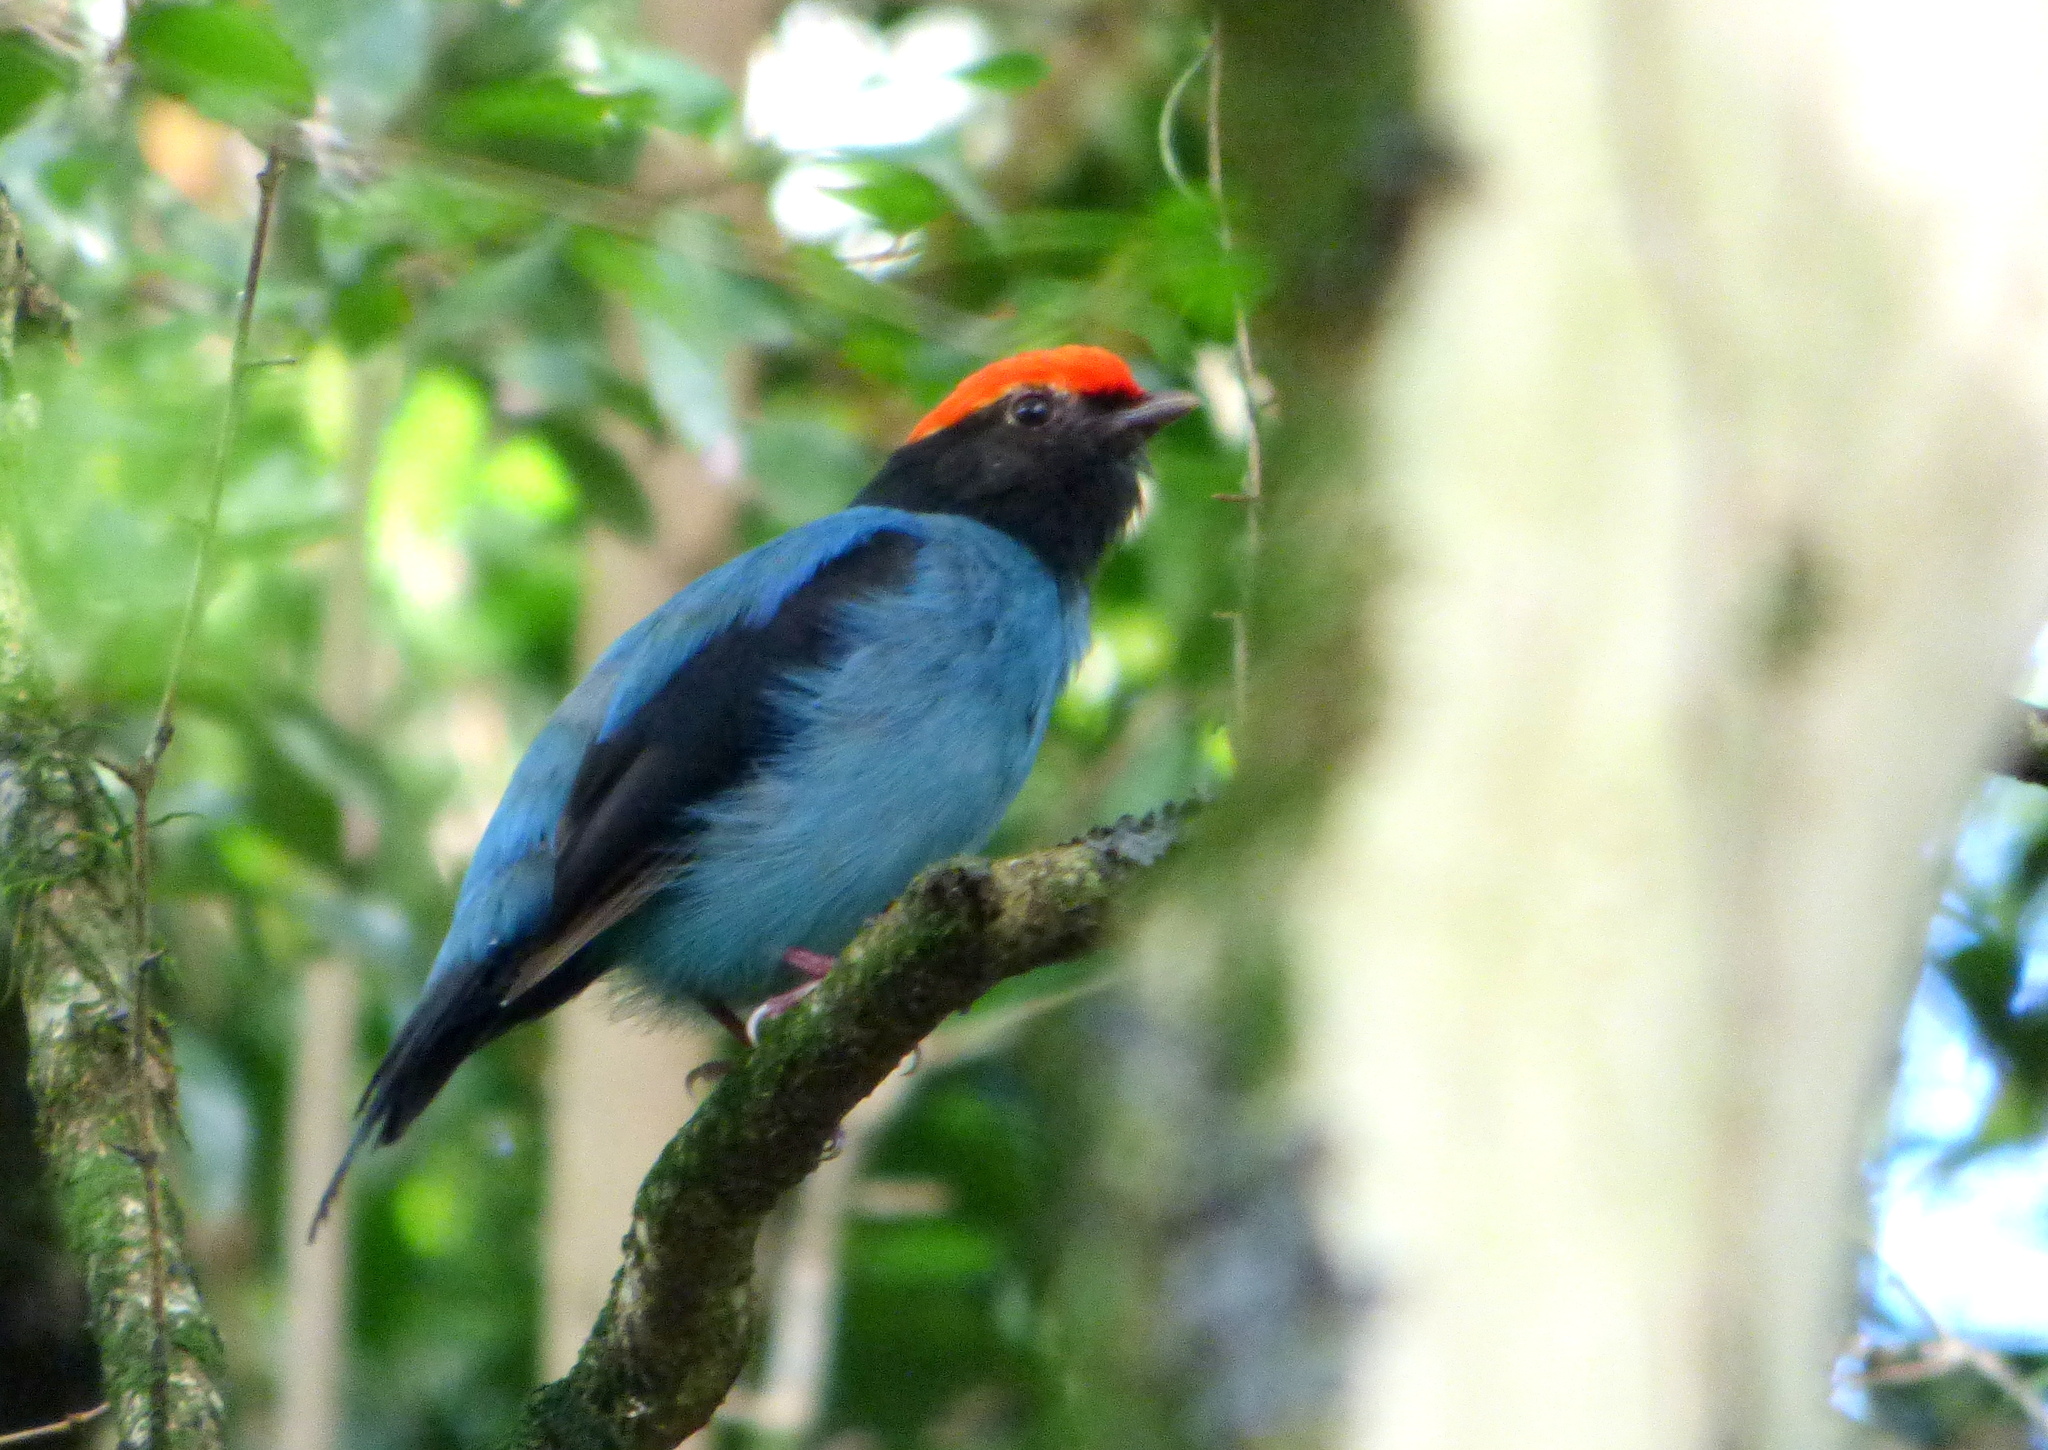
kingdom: Animalia
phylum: Chordata
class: Aves
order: Passeriformes
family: Pipridae
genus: Chiroxiphia
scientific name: Chiroxiphia caudata
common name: Blue manakin
